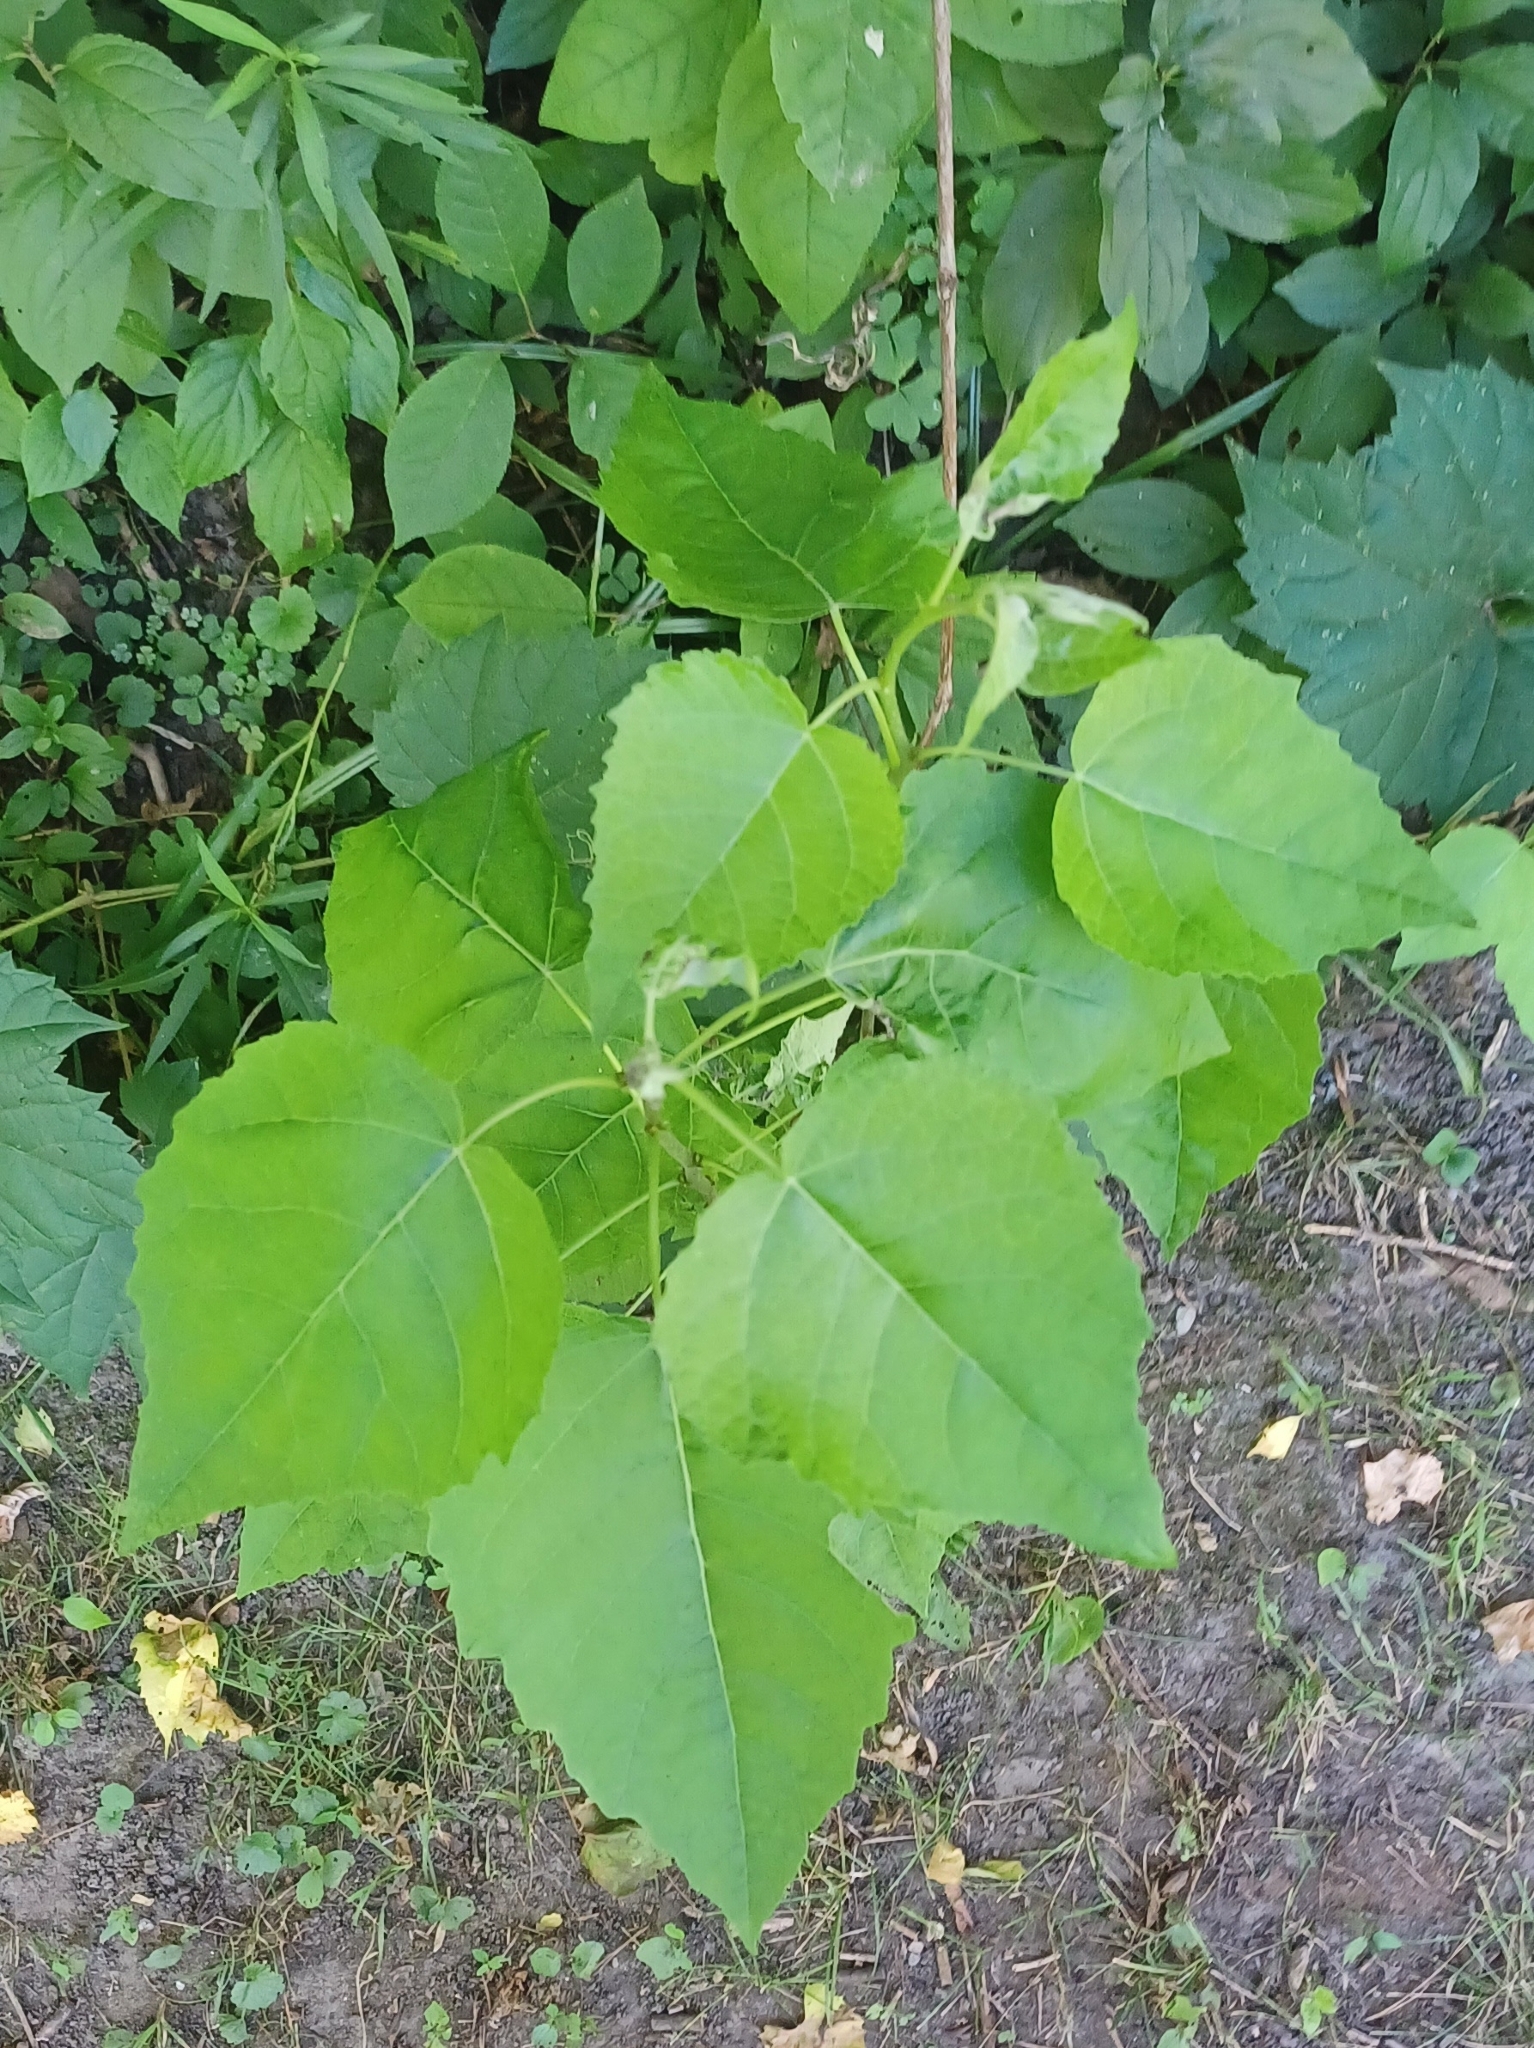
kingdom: Plantae
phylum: Tracheophyta
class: Magnoliopsida
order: Malpighiales
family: Salicaceae
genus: Populus
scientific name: Populus grandidentata
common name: Bigtooth aspen
